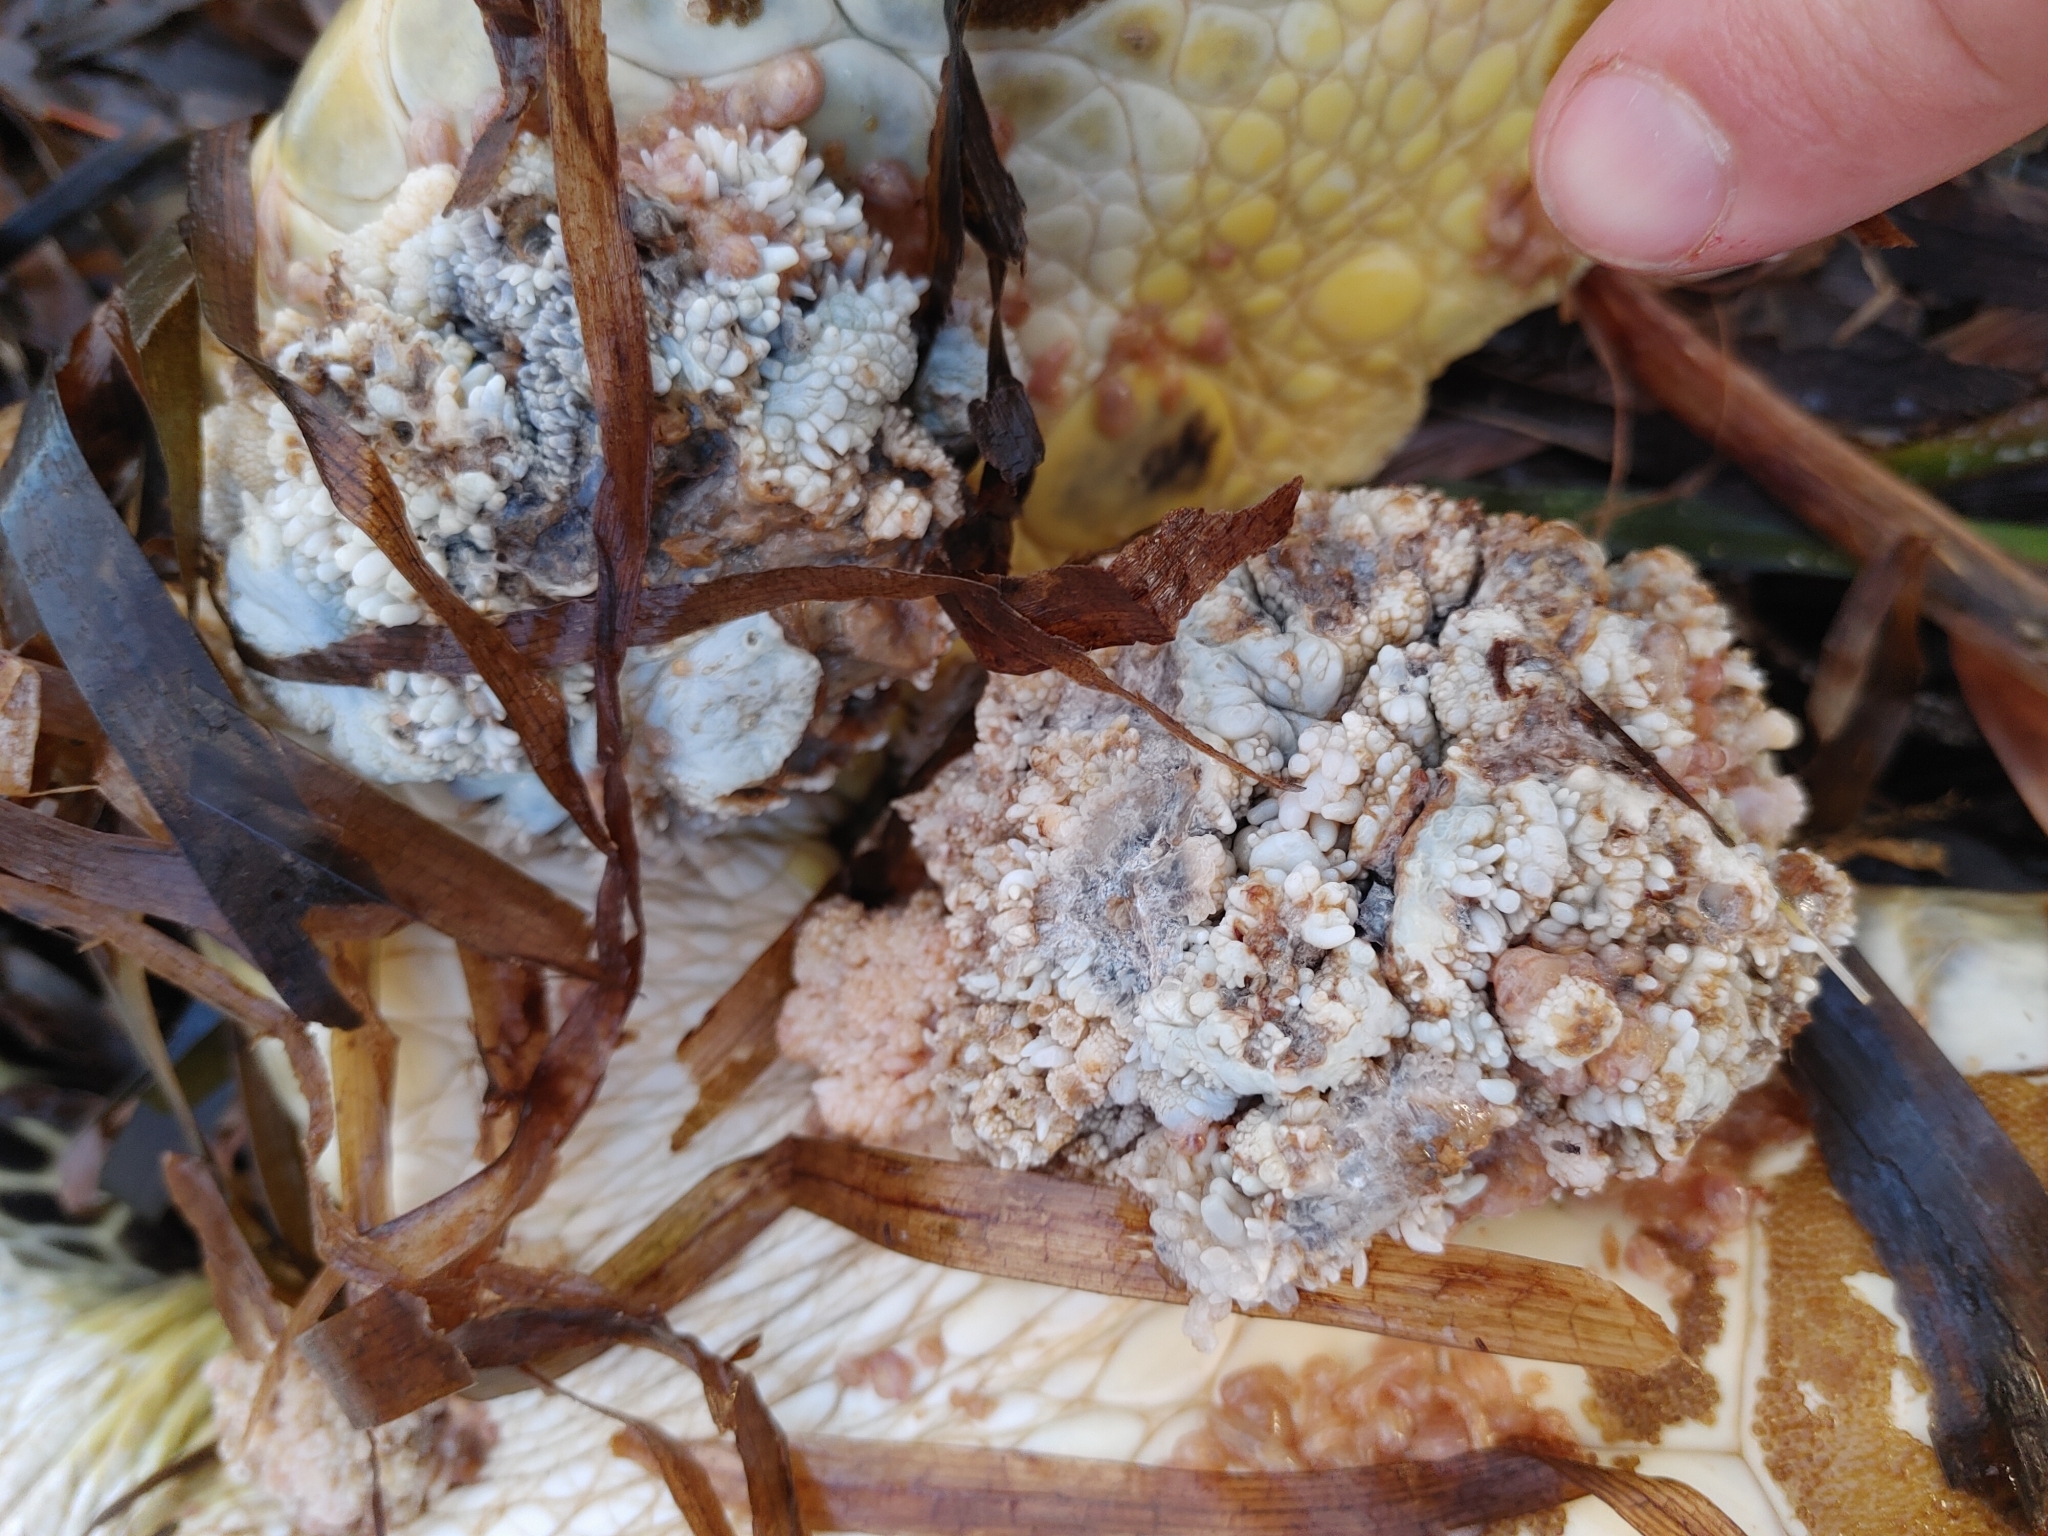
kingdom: Animalia
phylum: Chordata
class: Testudines
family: Cheloniidae
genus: Chelonia
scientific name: Chelonia mydas
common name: Green turtle
